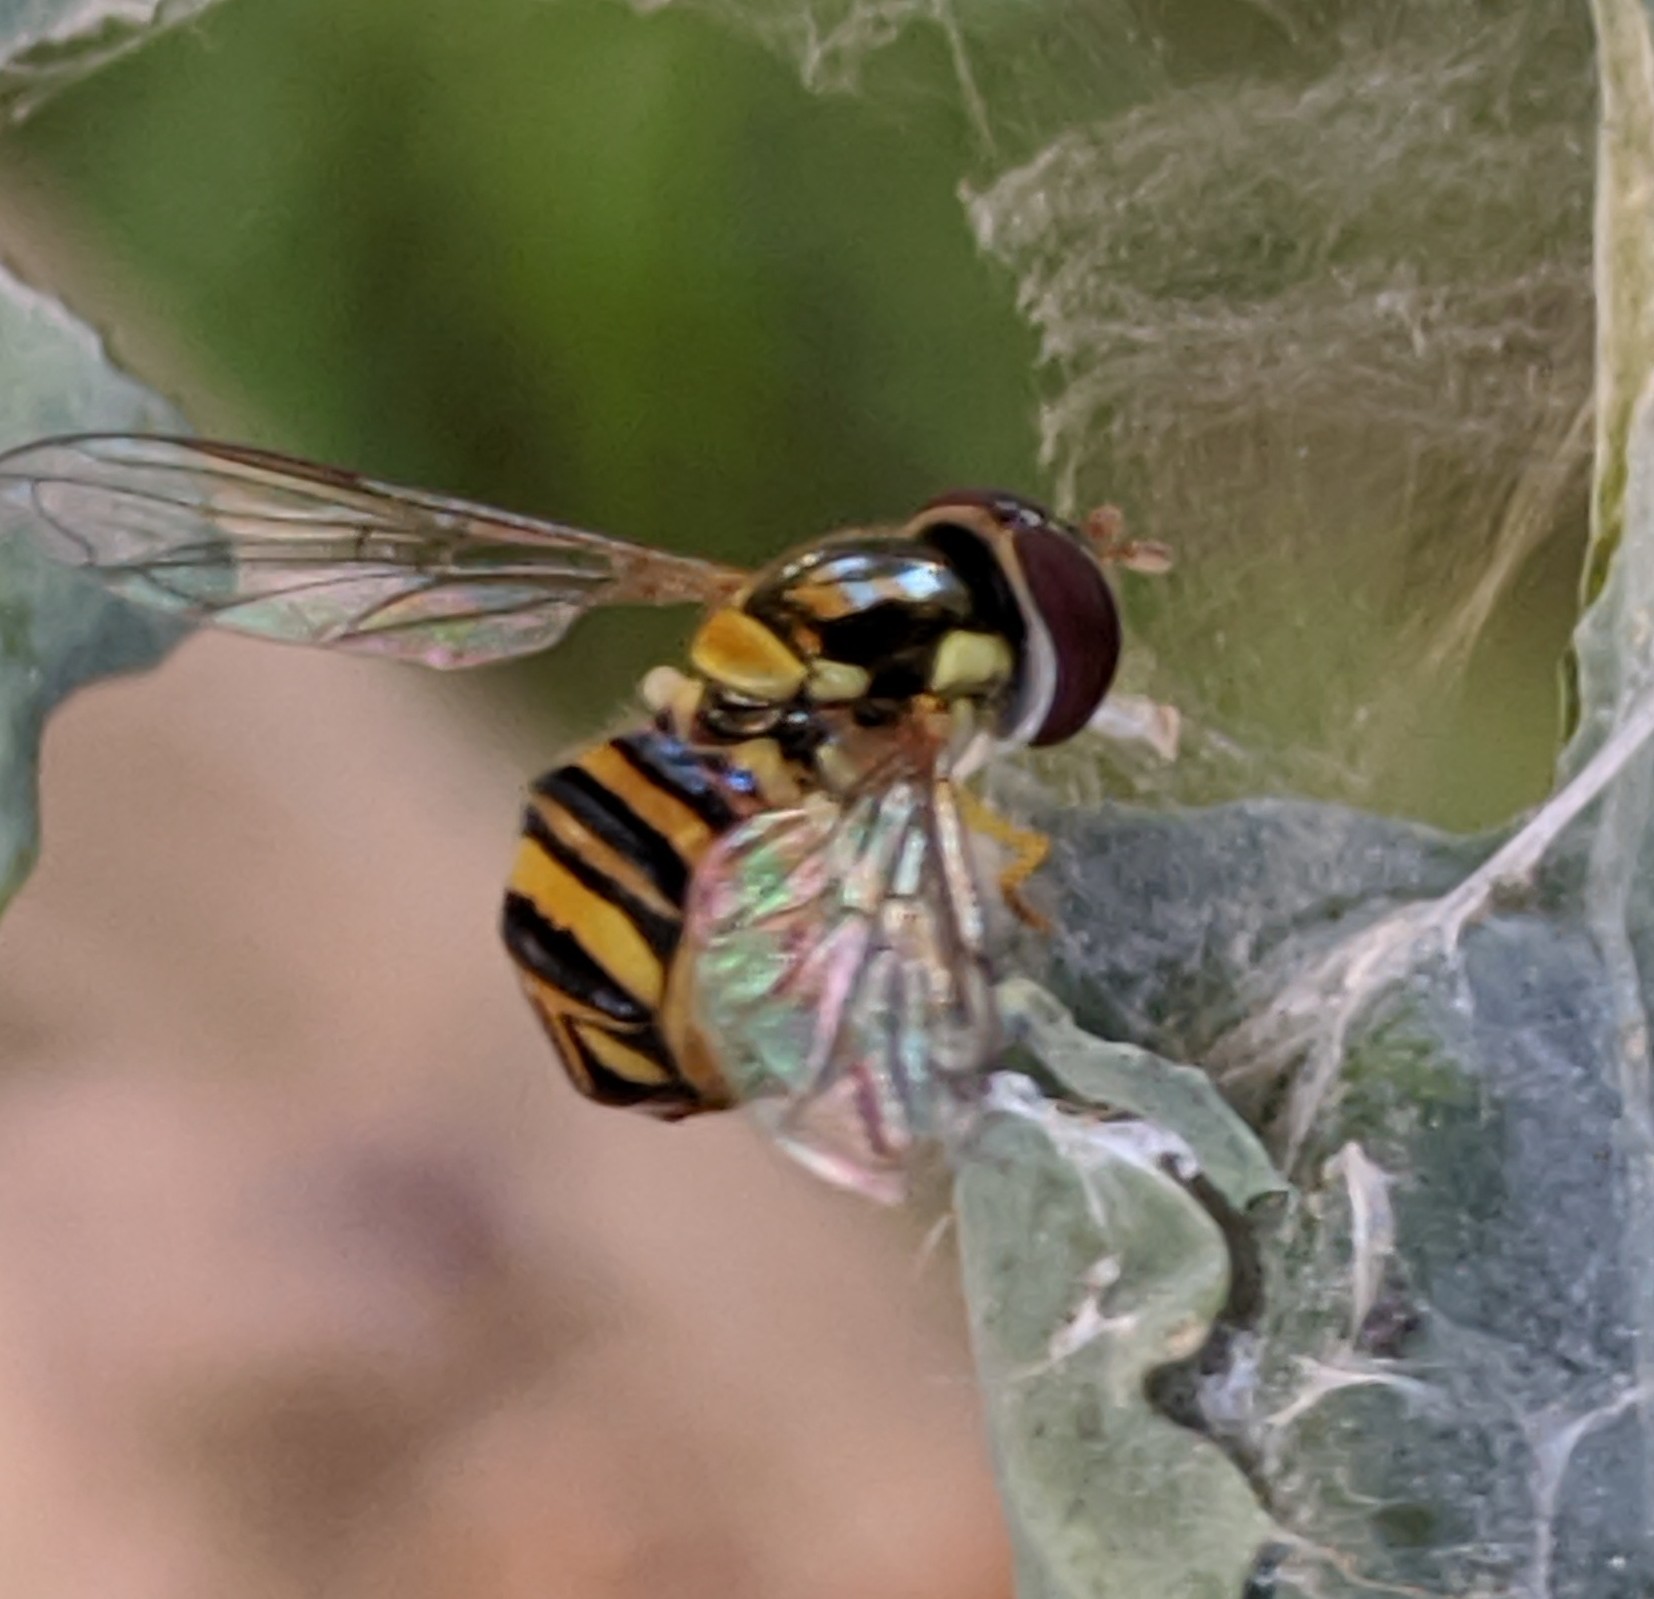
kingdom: Animalia
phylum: Arthropoda
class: Insecta
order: Diptera
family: Syrphidae
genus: Allograpta
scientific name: Allograpta obliqua
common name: Common oblique syrphid
